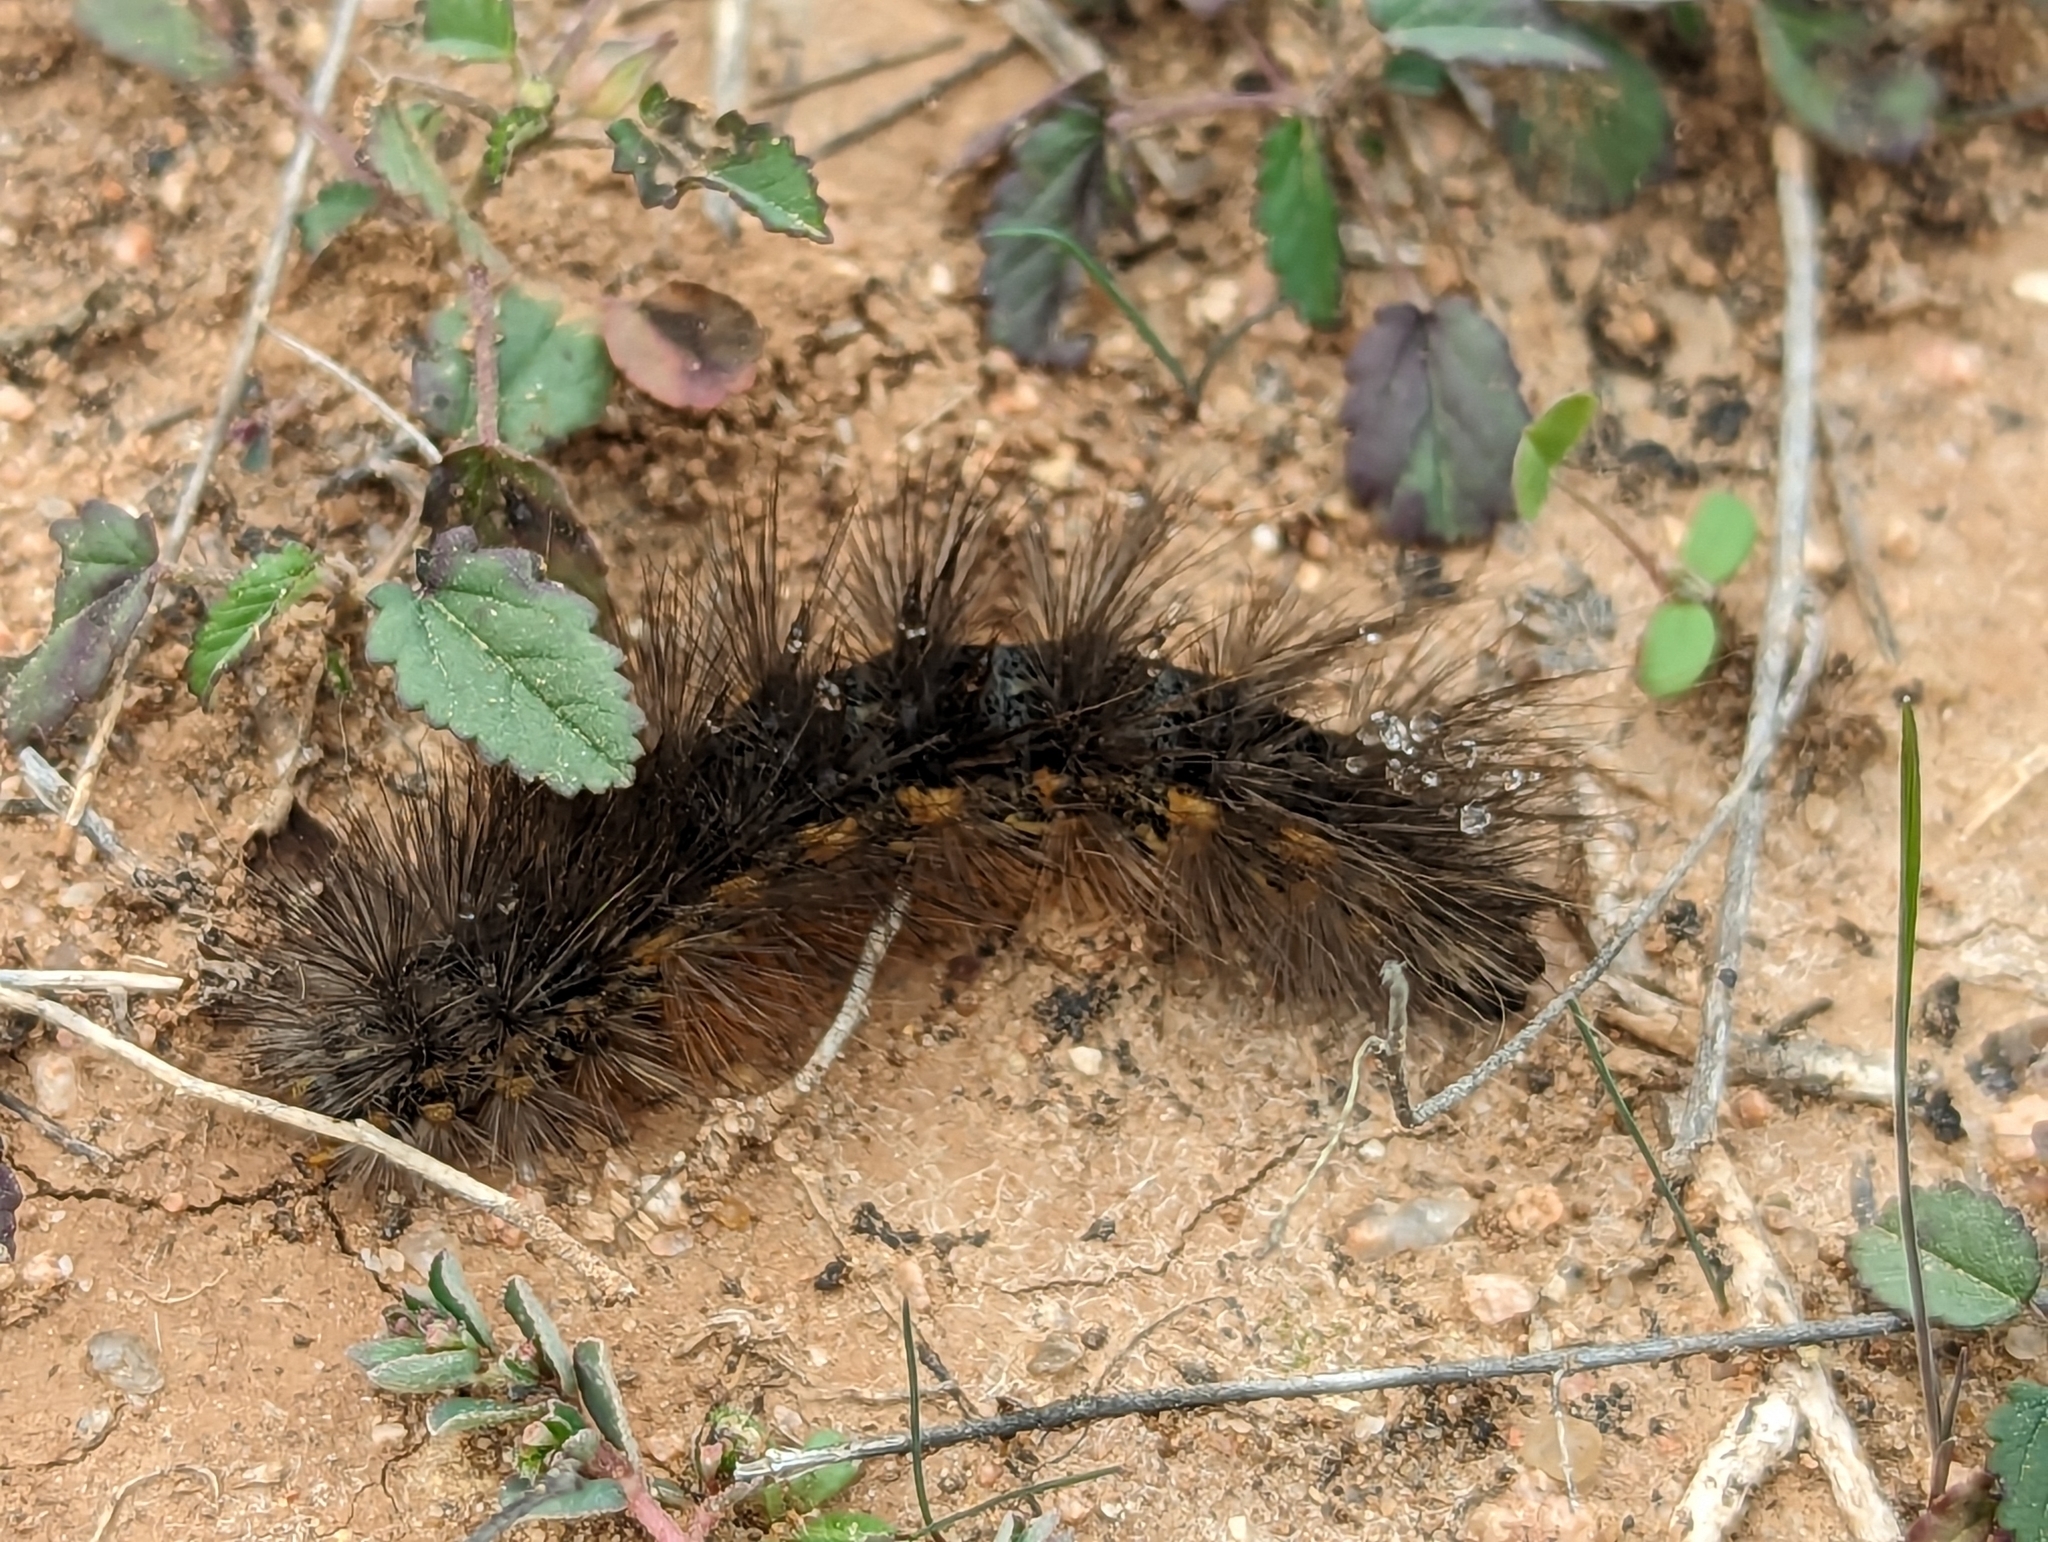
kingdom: Animalia
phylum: Arthropoda
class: Insecta
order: Lepidoptera
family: Erebidae
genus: Estigmene
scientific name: Estigmene acrea
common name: Salt marsh moth
